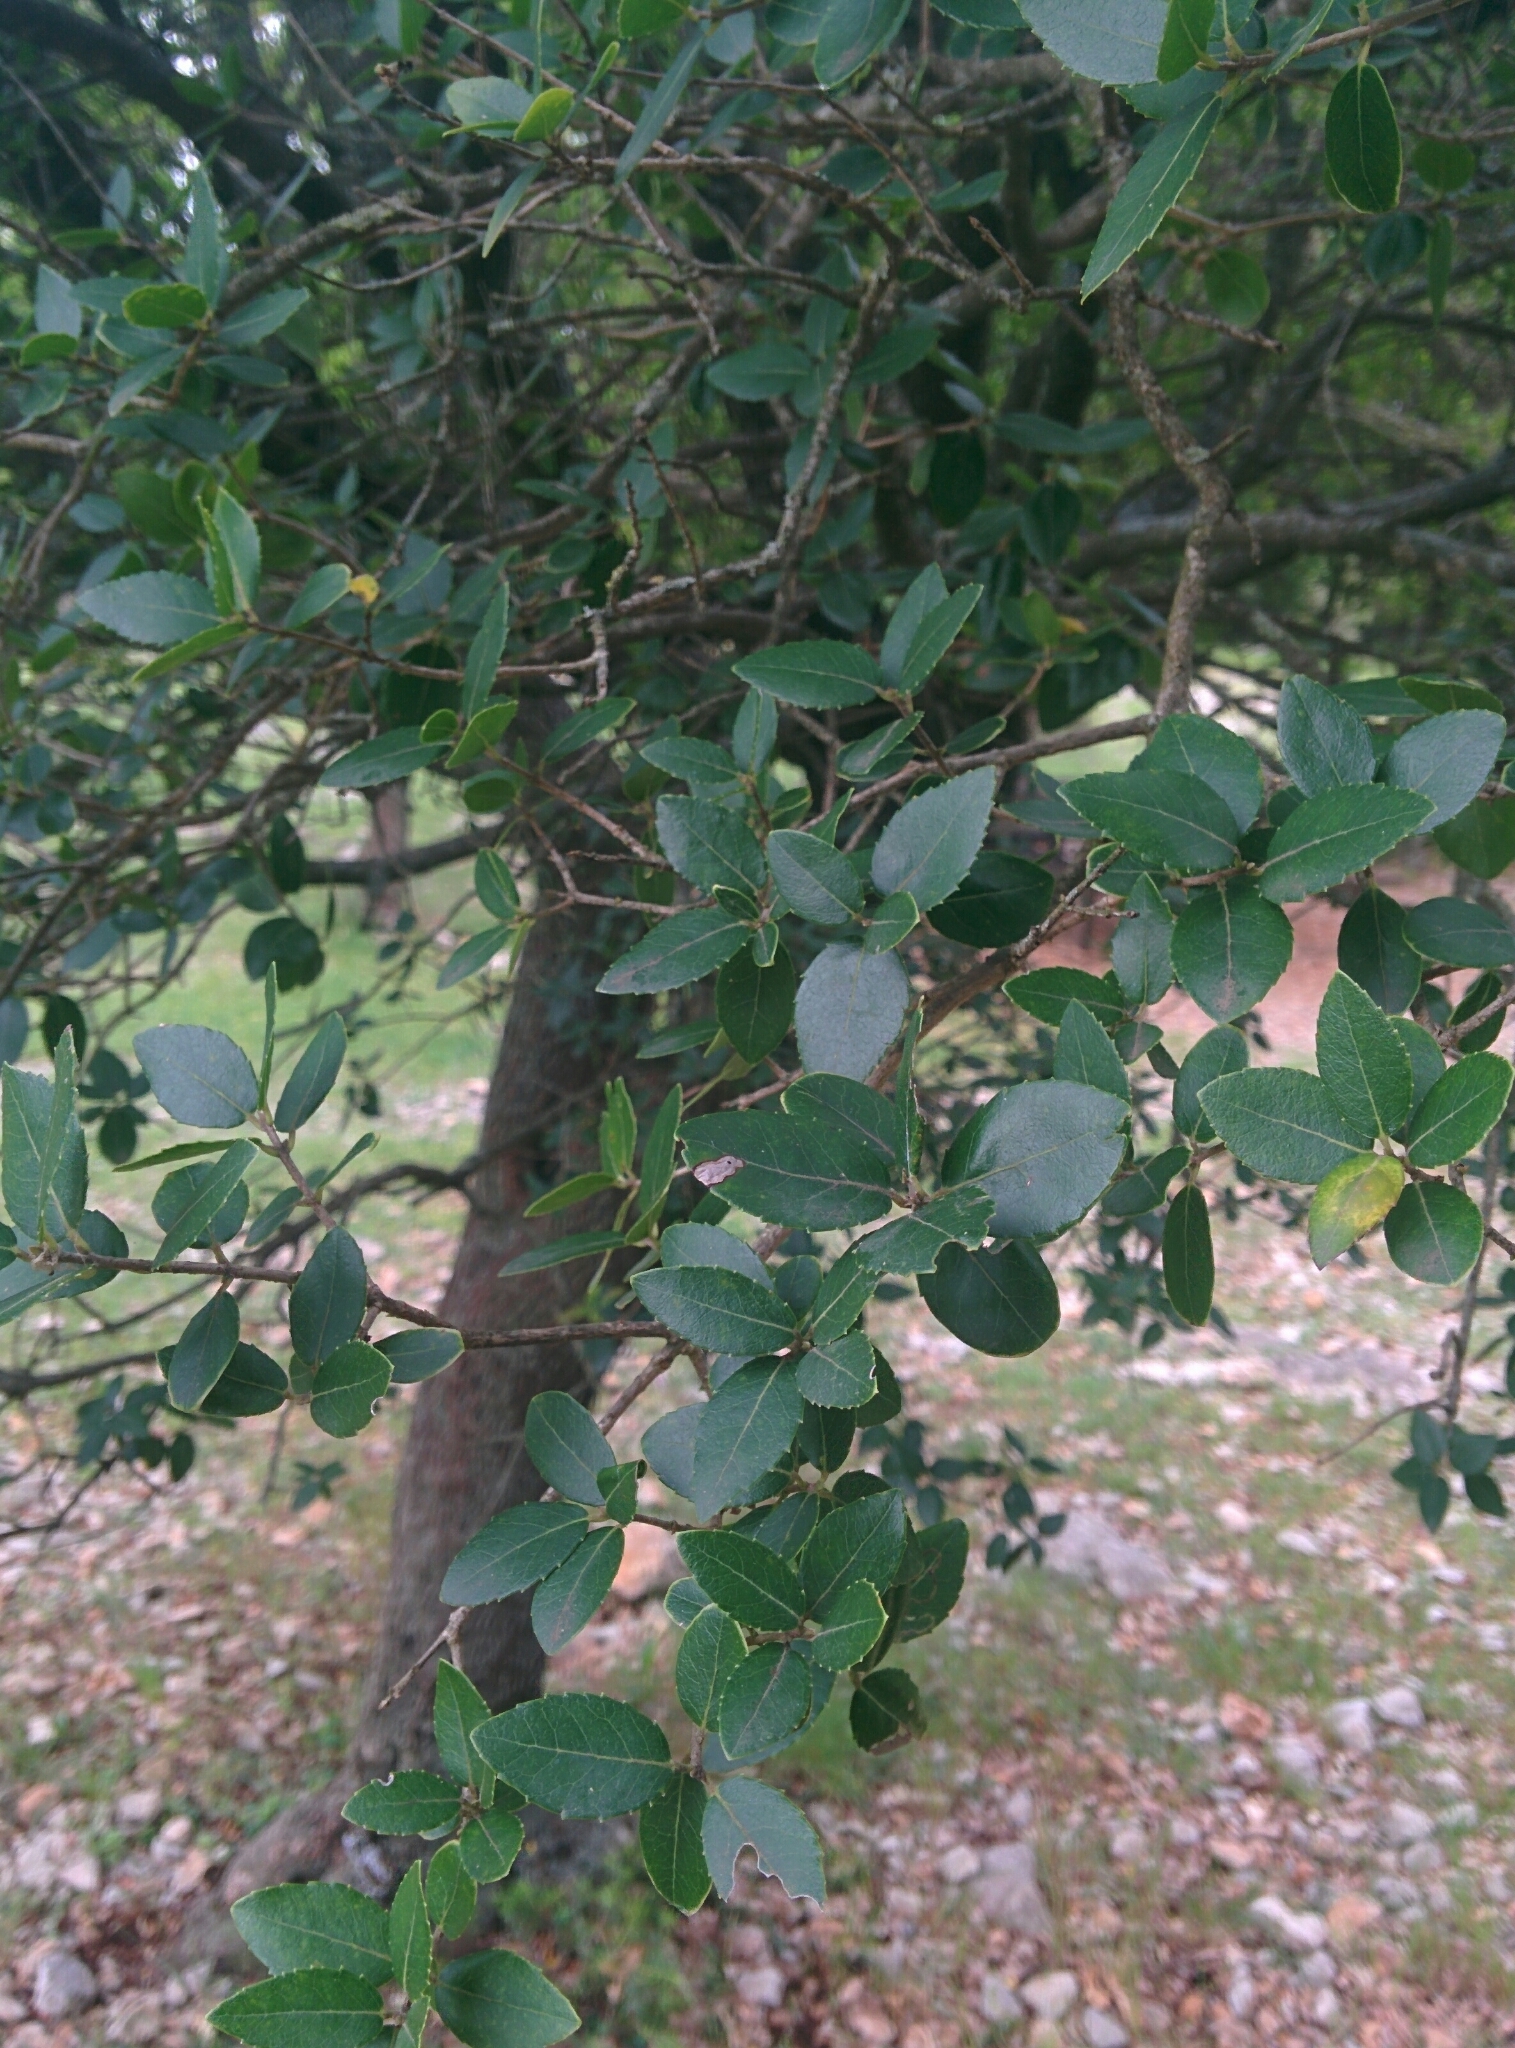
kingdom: Plantae
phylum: Tracheophyta
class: Magnoliopsida
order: Lamiales
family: Oleaceae
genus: Phillyrea
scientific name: Phillyrea latifolia
